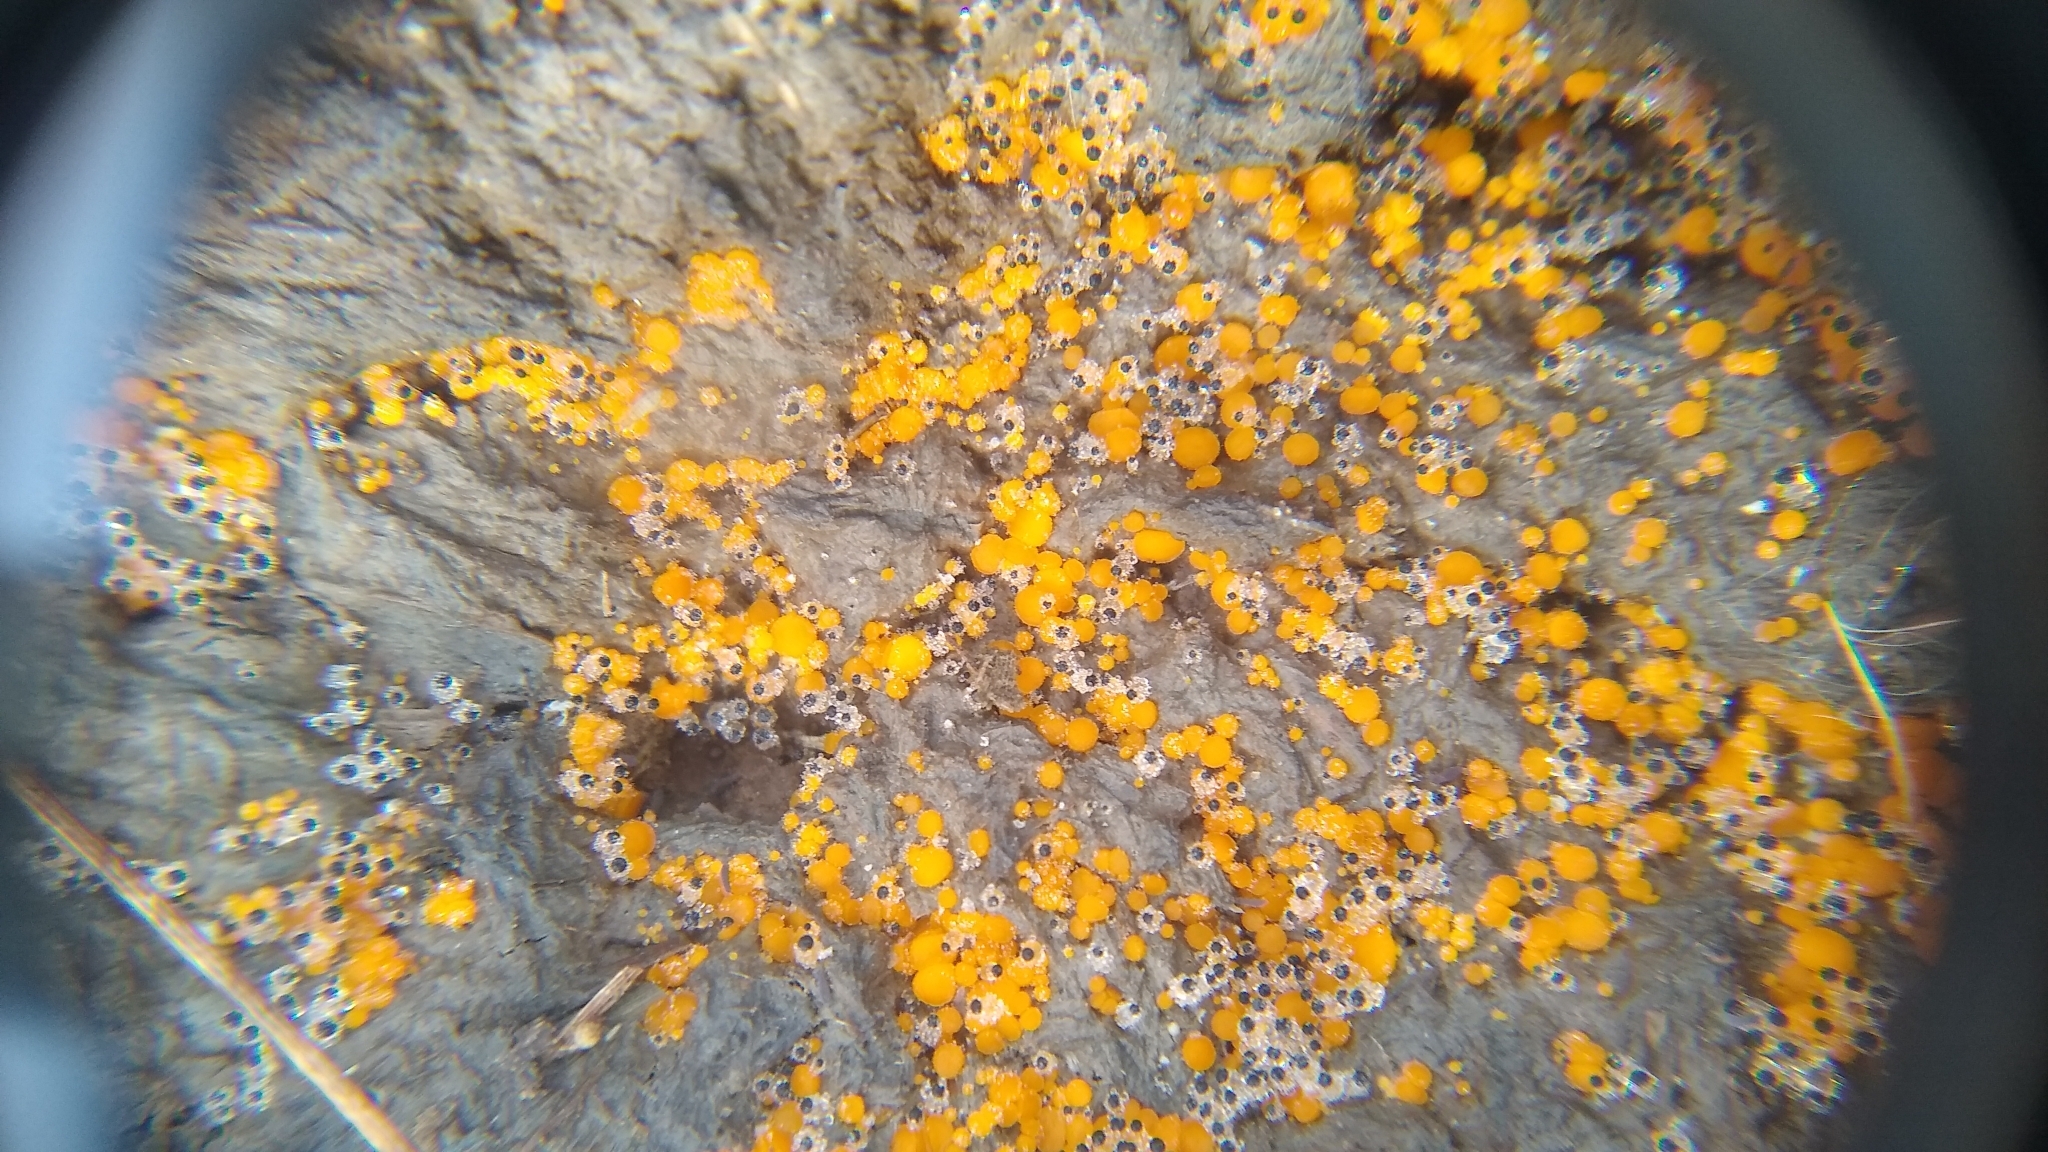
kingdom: Fungi
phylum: Mucoromycota
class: Mucoromycetes
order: Mucorales
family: Pilobolaceae
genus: Pilobolus
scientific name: Pilobolus
